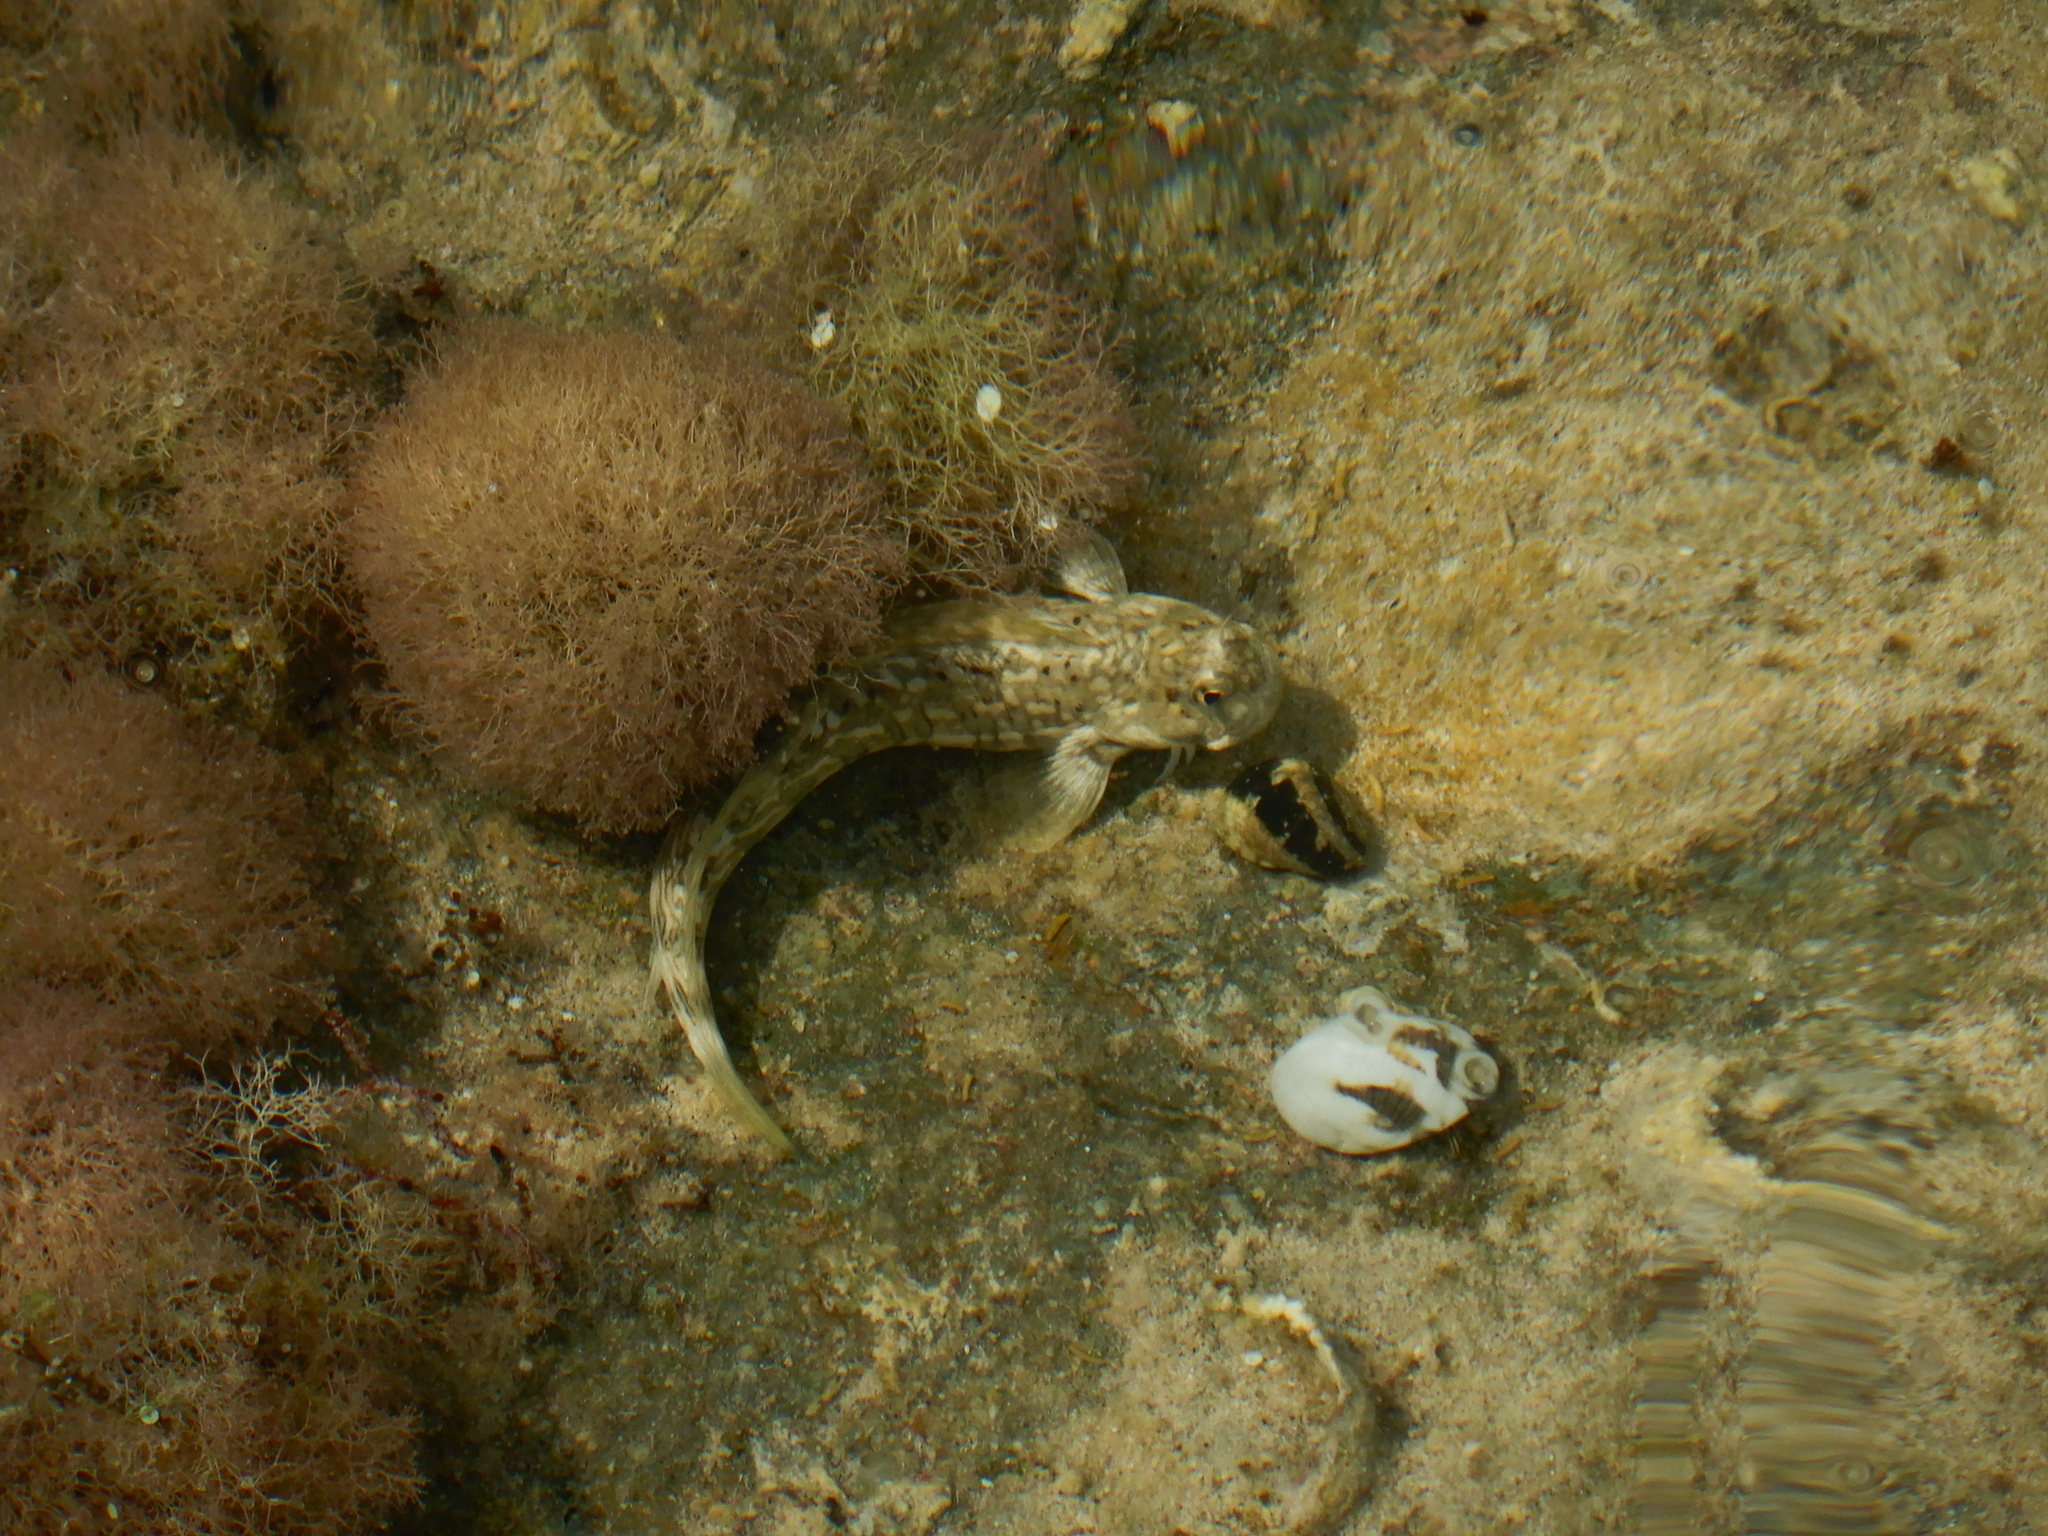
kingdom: Animalia
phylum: Chordata
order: Perciformes
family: Blenniidae
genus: Istiblennius
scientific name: Istiblennius rivulatus
